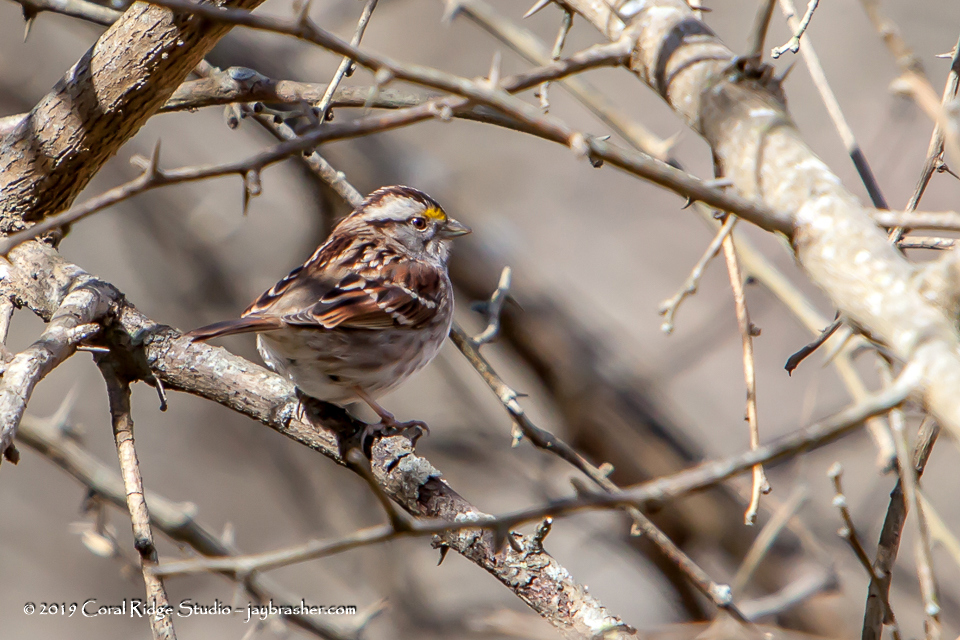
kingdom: Animalia
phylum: Chordata
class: Aves
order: Passeriformes
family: Passerellidae
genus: Zonotrichia
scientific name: Zonotrichia albicollis
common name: White-throated sparrow
